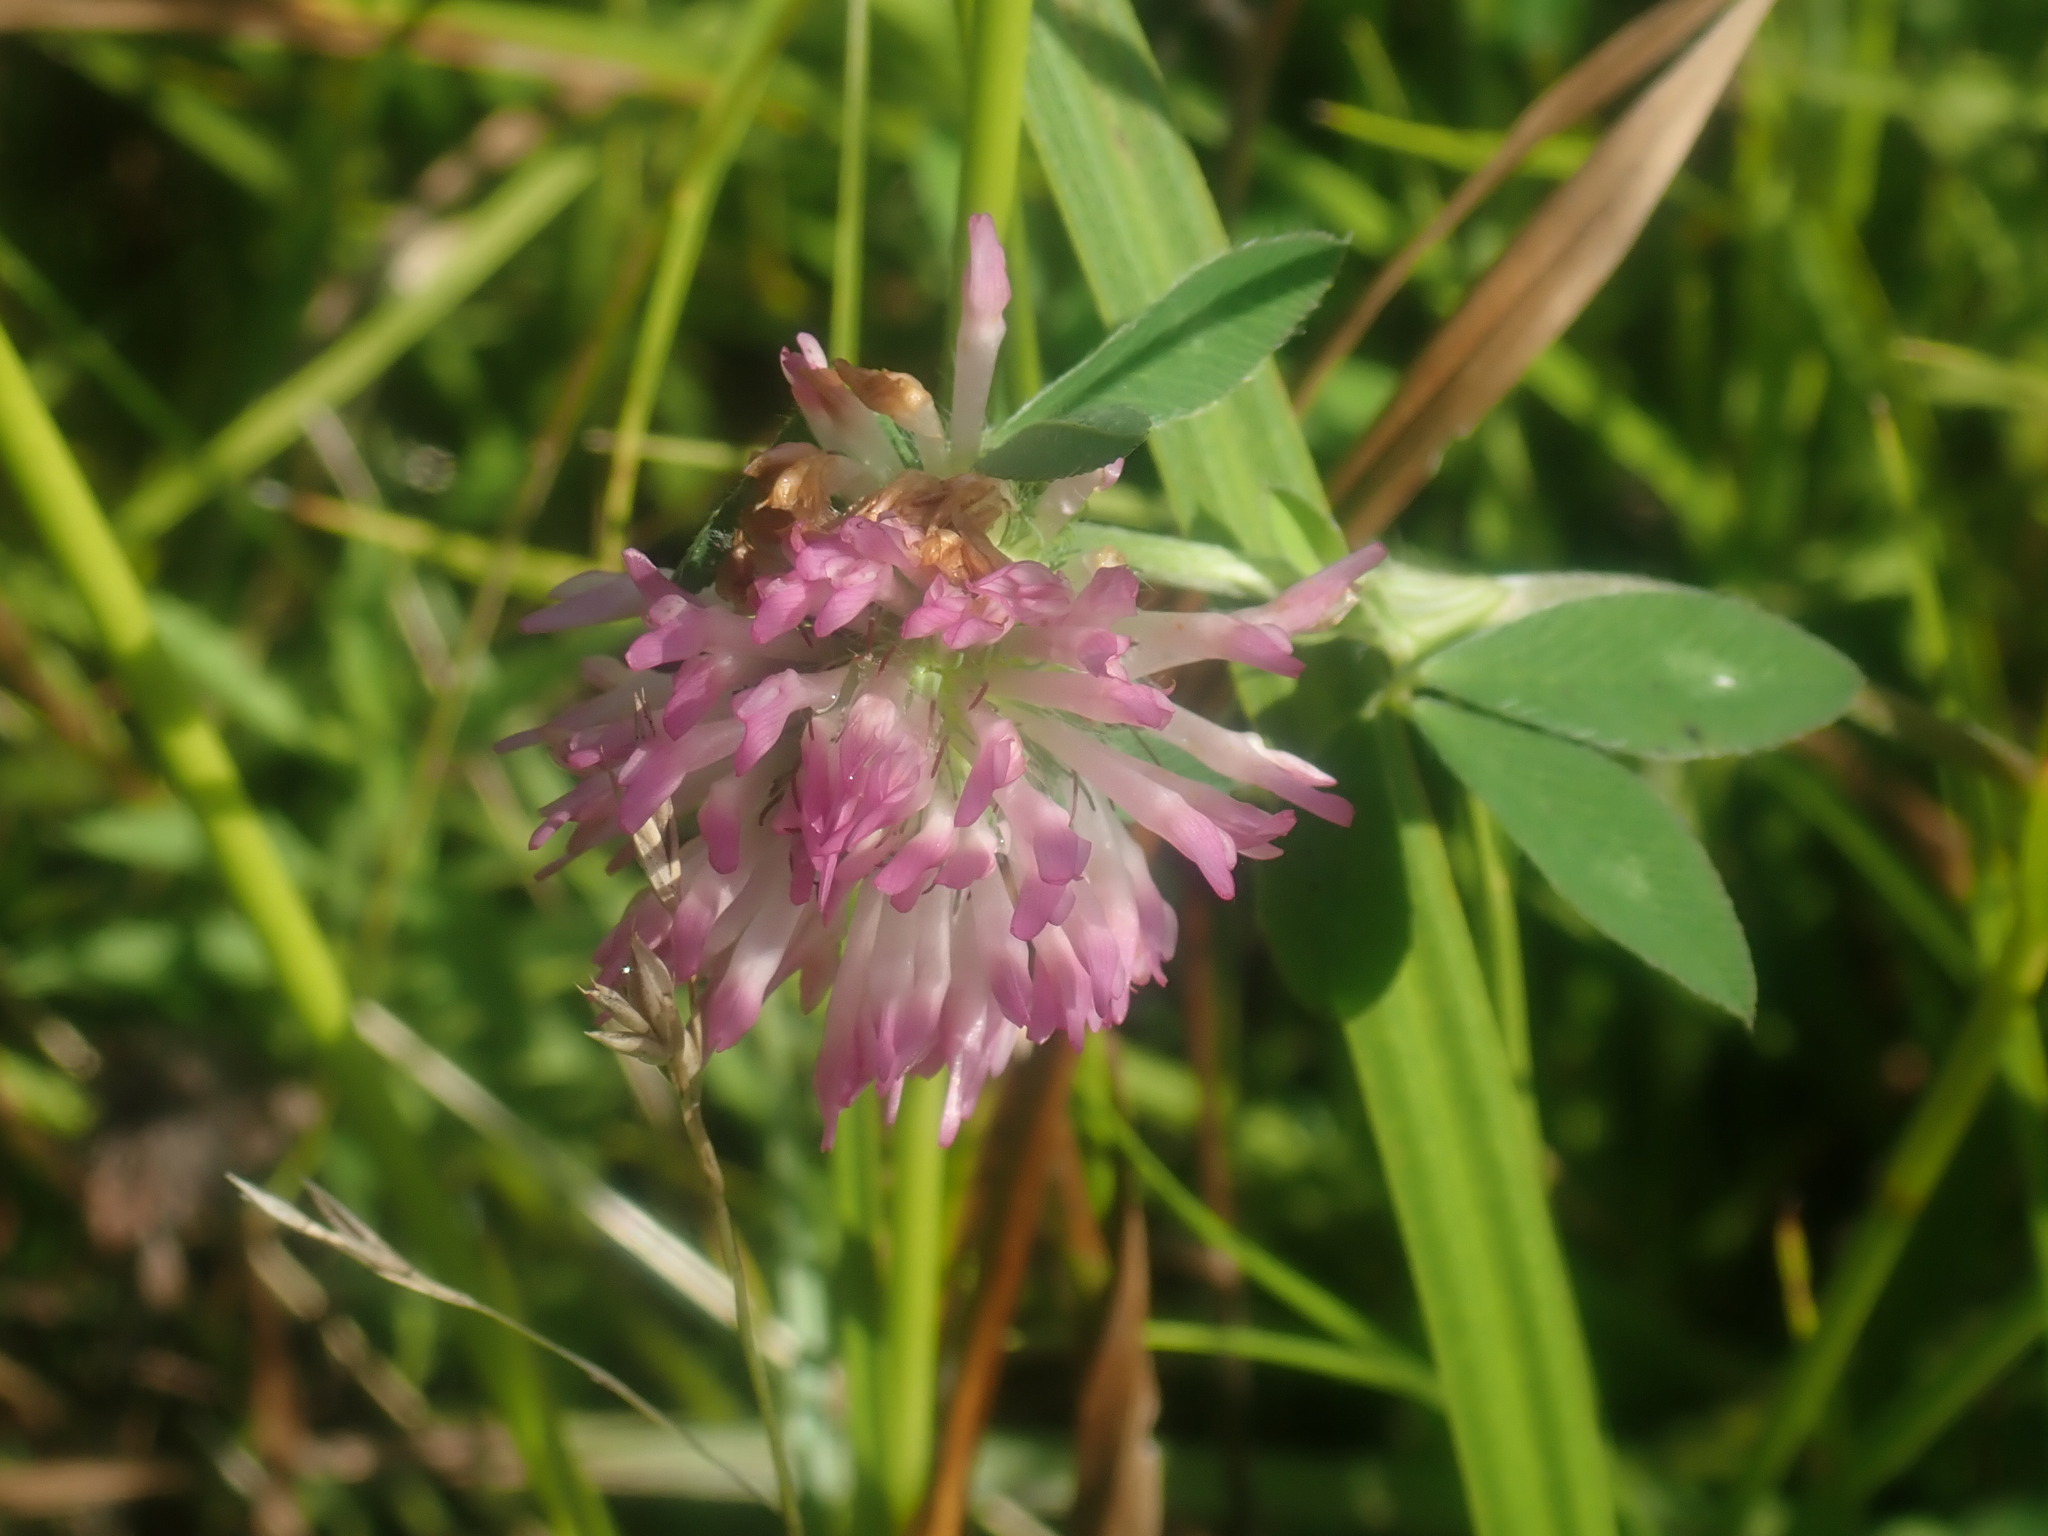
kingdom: Plantae
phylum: Tracheophyta
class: Magnoliopsida
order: Fabales
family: Fabaceae
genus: Trifolium
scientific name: Trifolium pratense
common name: Red clover
